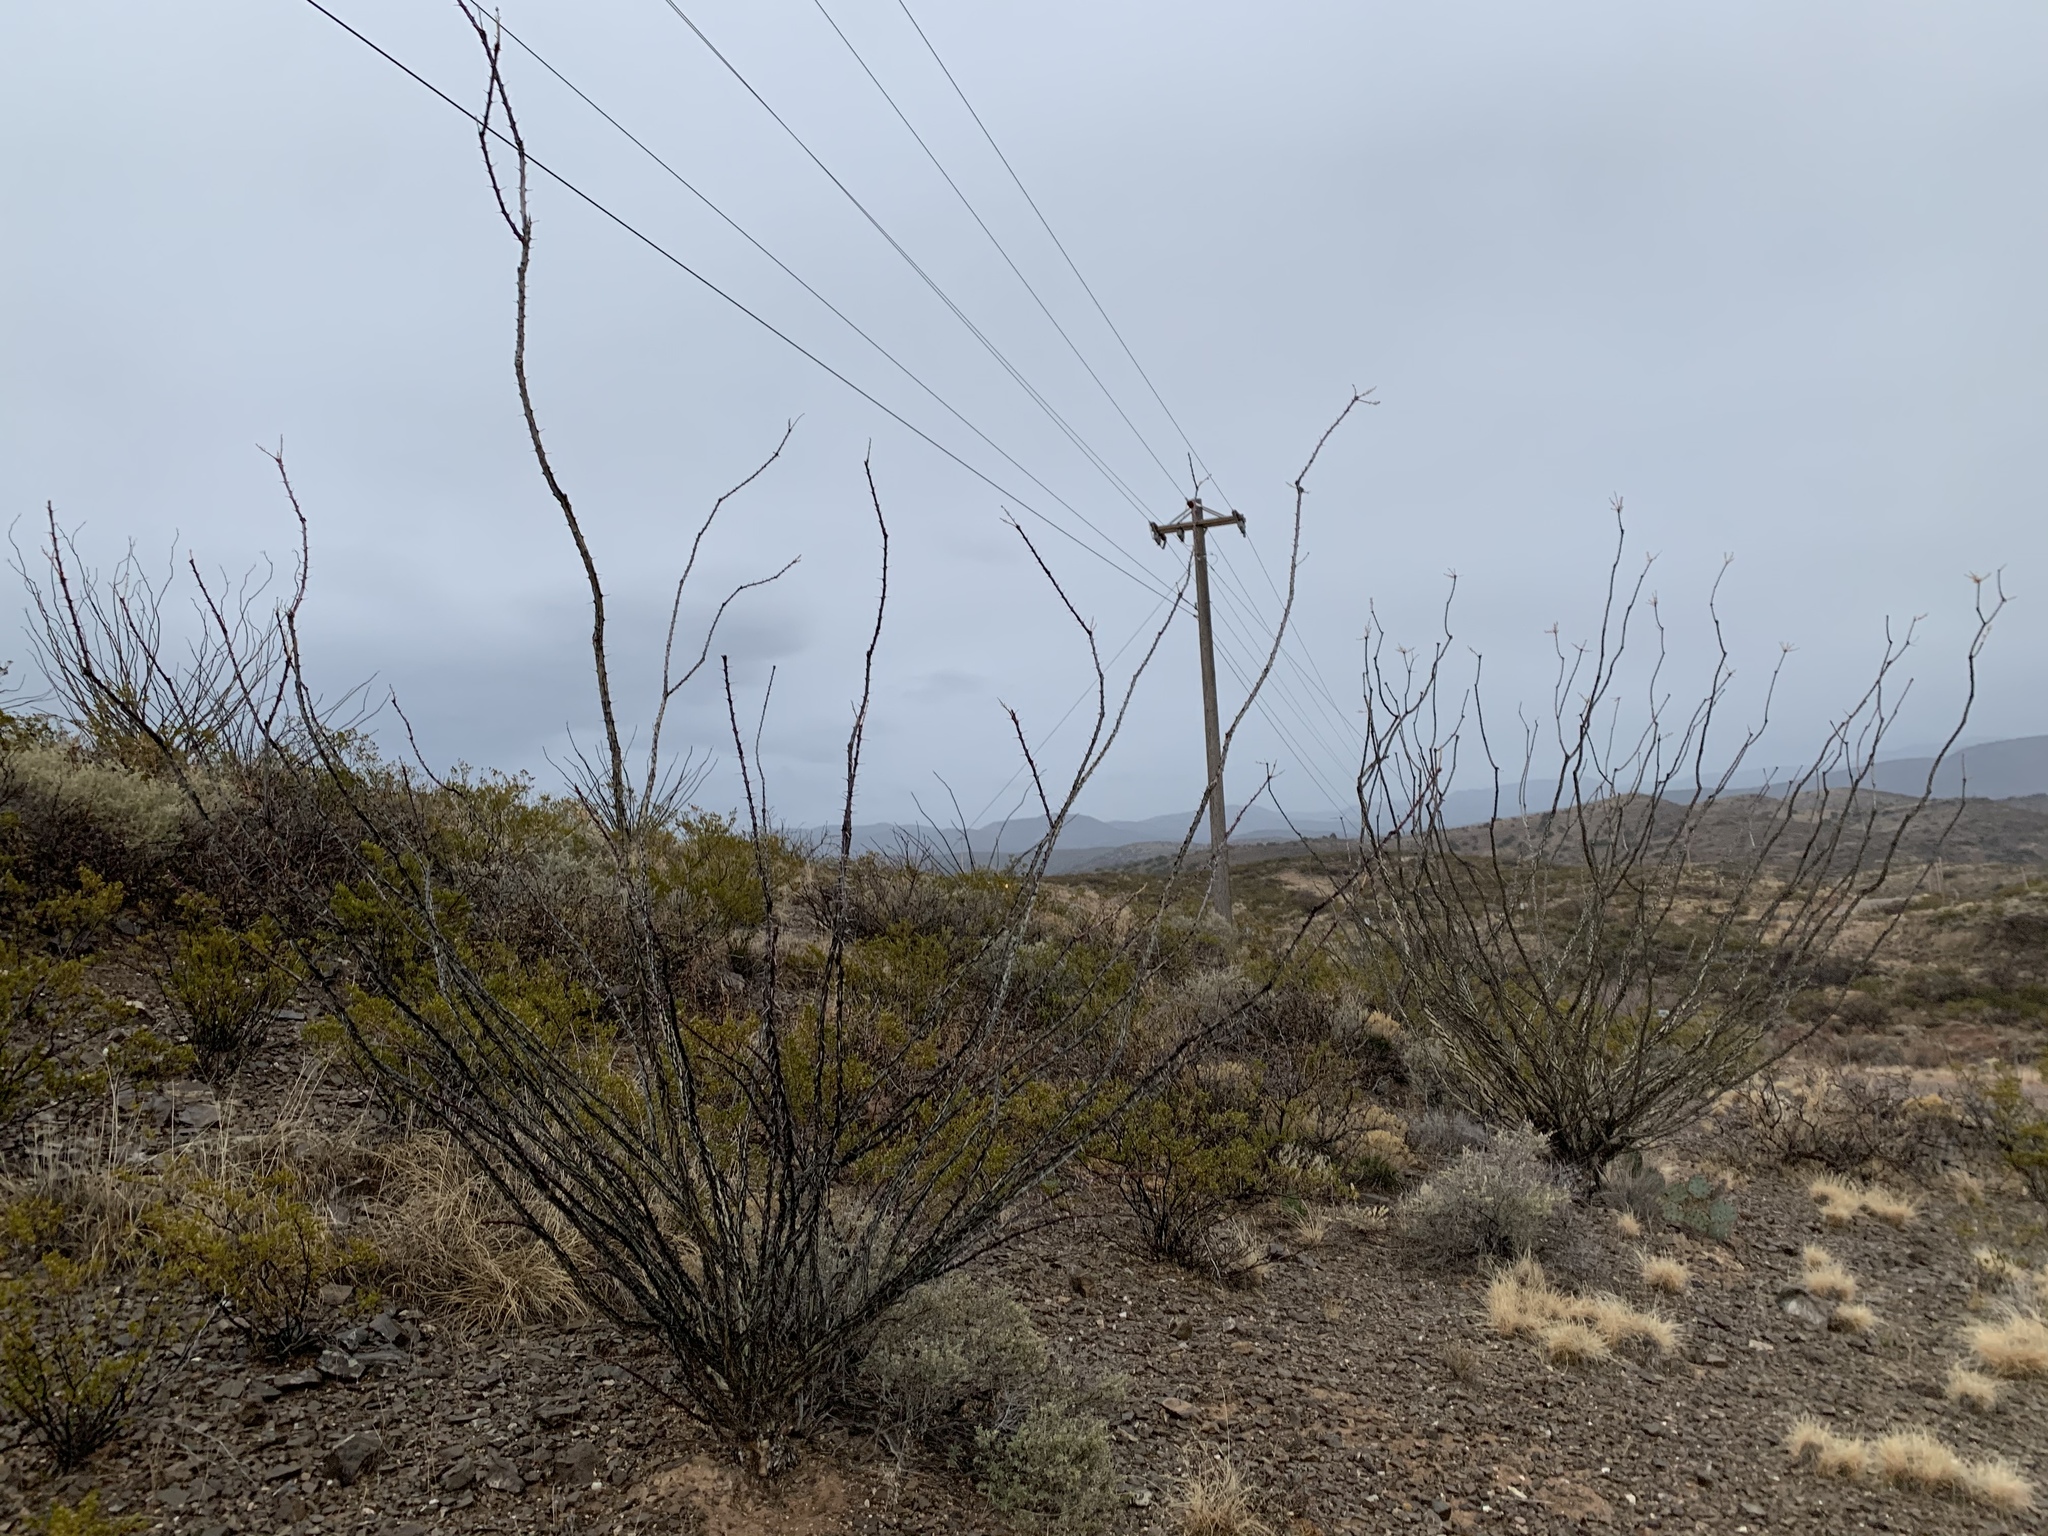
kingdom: Plantae
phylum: Tracheophyta
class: Magnoliopsida
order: Ericales
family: Fouquieriaceae
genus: Fouquieria
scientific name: Fouquieria splendens
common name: Vine-cactus
